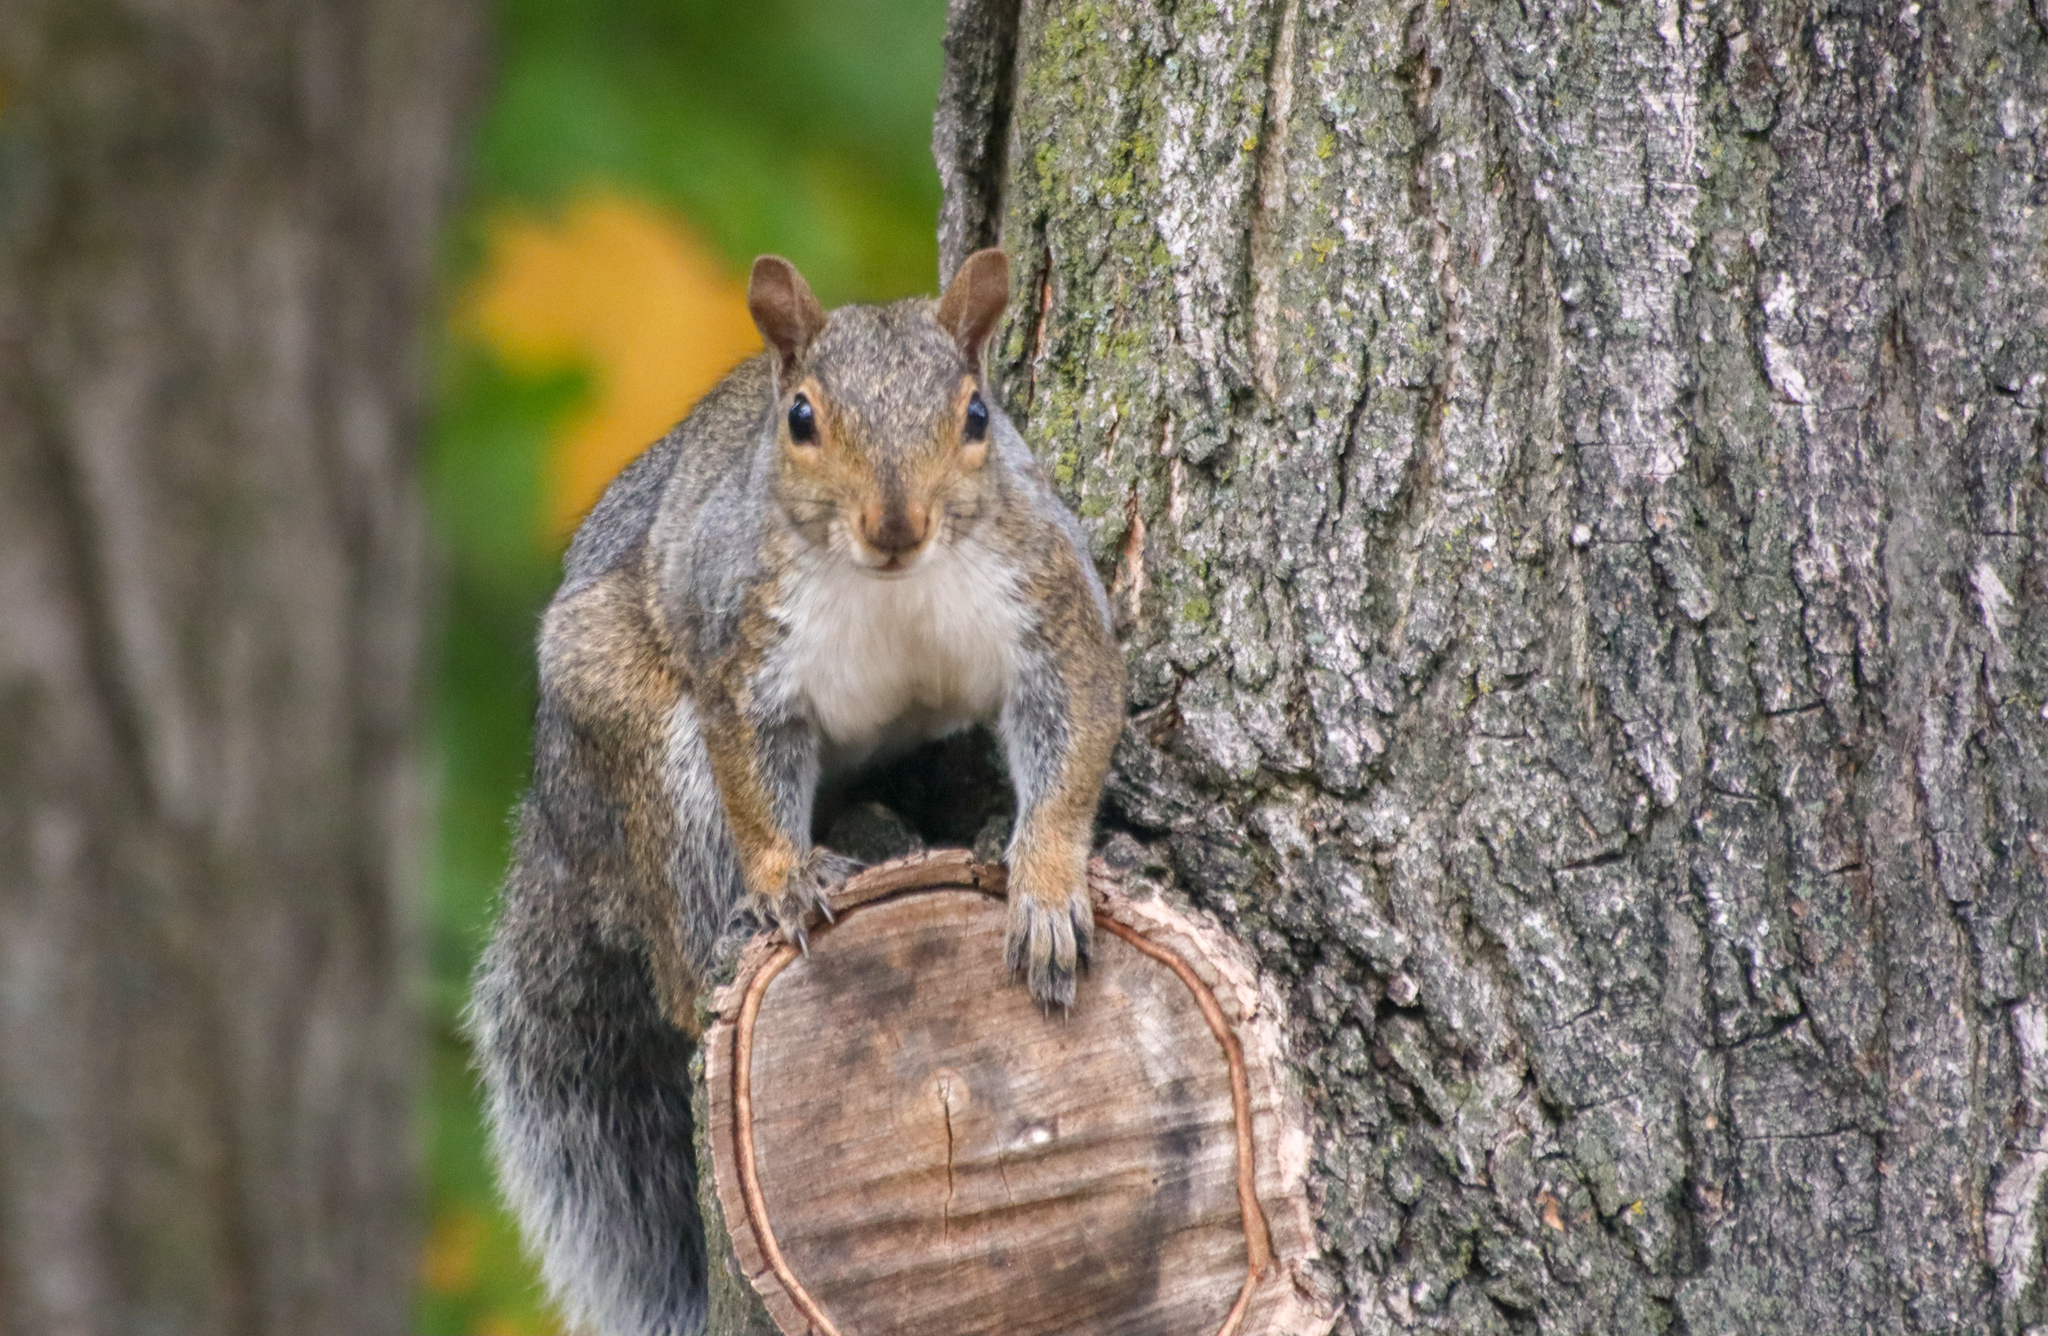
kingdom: Animalia
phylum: Chordata
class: Mammalia
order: Rodentia
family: Sciuridae
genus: Sciurus
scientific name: Sciurus carolinensis
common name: Eastern gray squirrel
